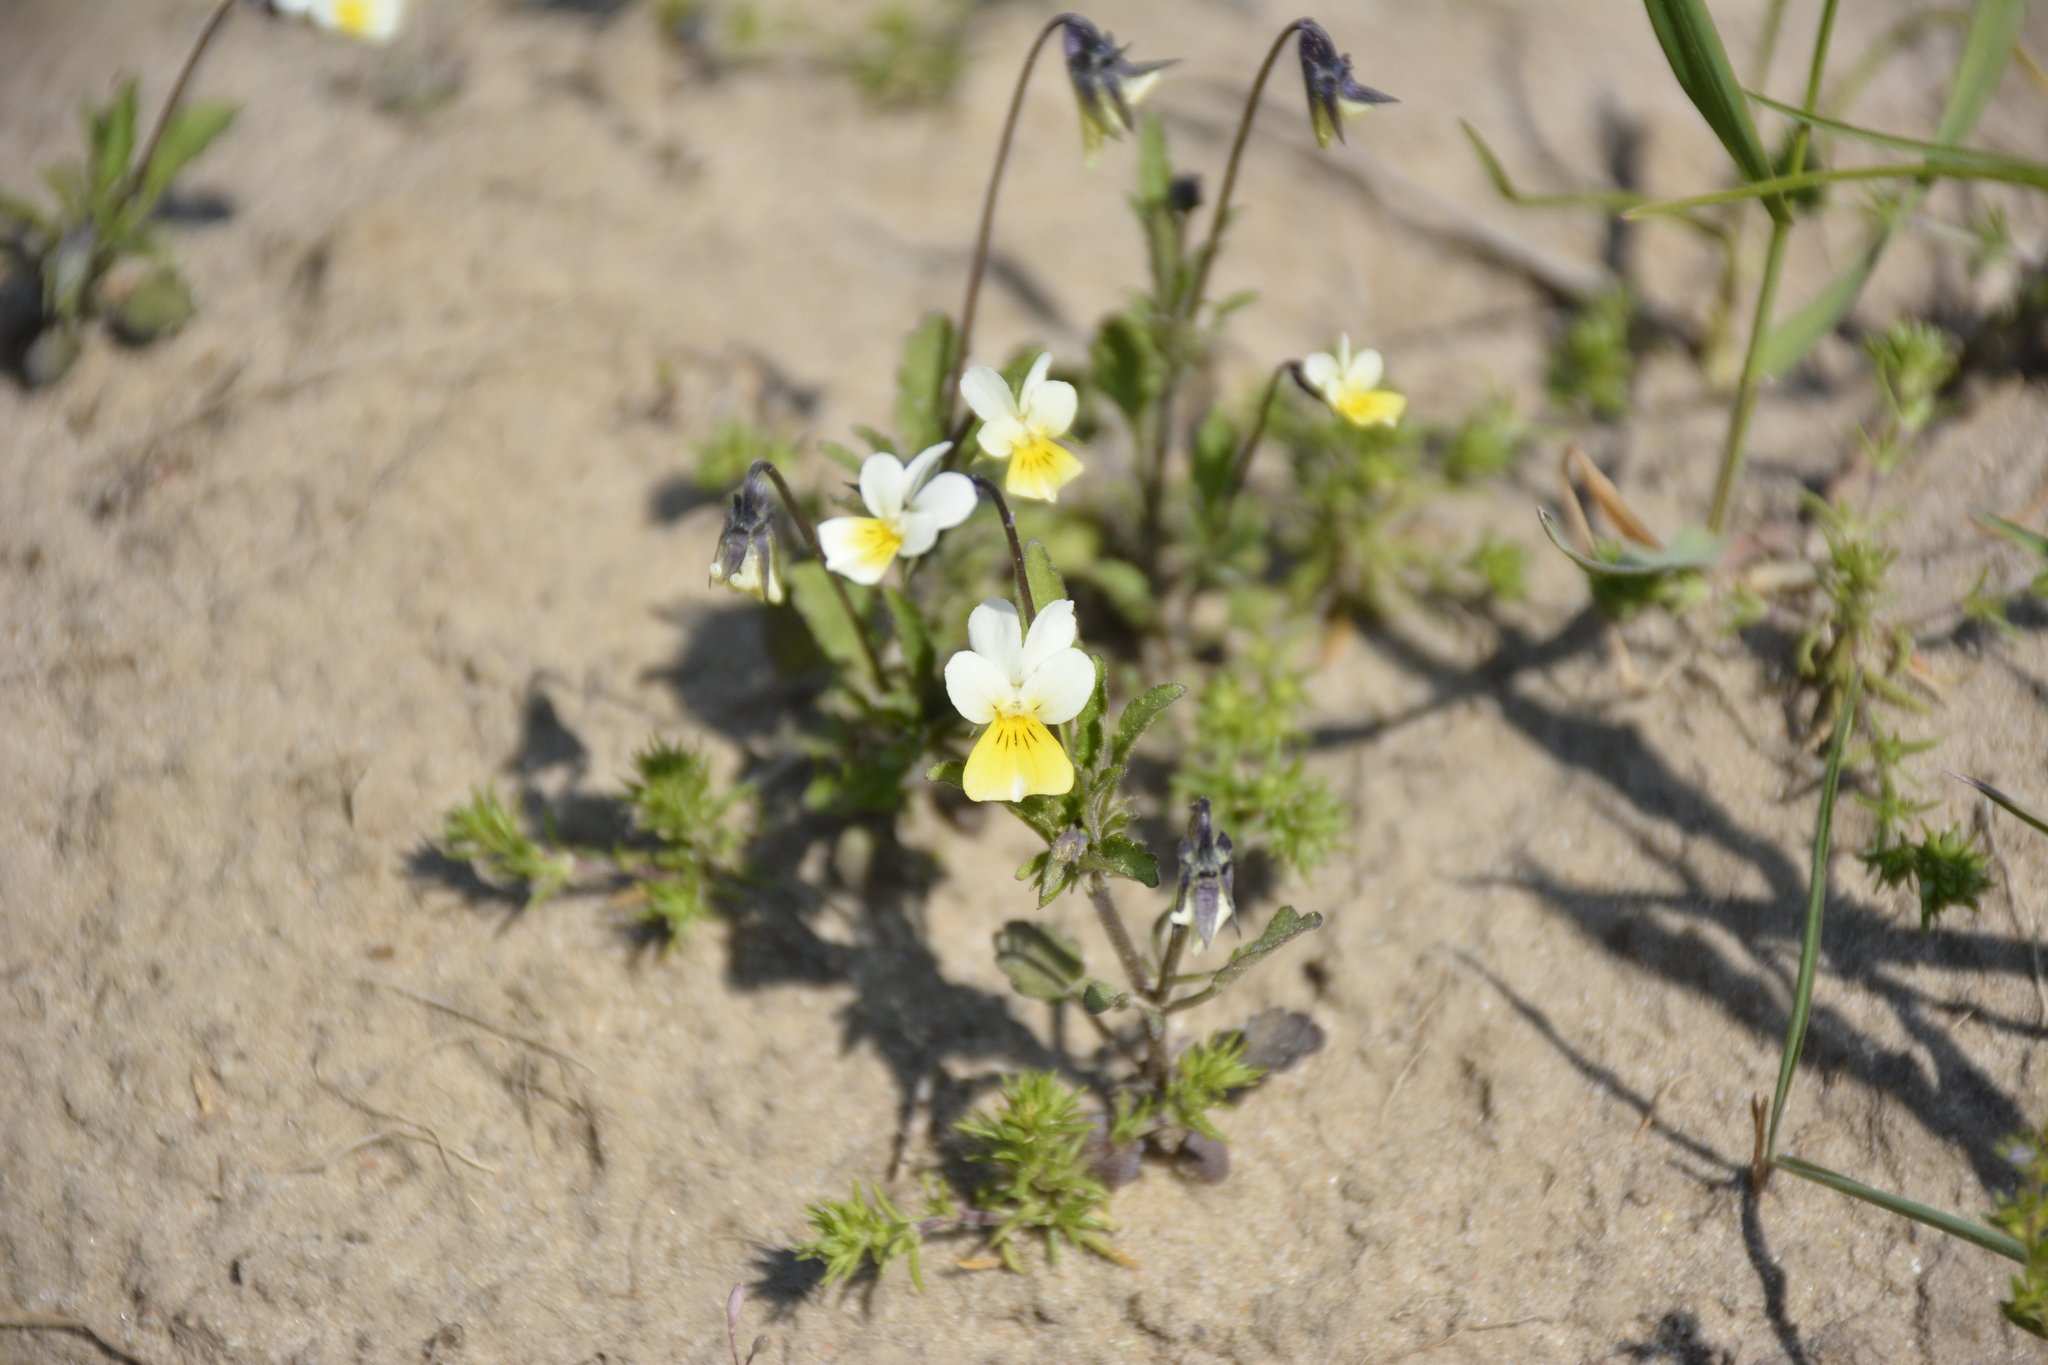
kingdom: Plantae
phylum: Tracheophyta
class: Magnoliopsida
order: Malpighiales
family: Violaceae
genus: Viola
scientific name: Viola arvensis
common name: Field pansy
